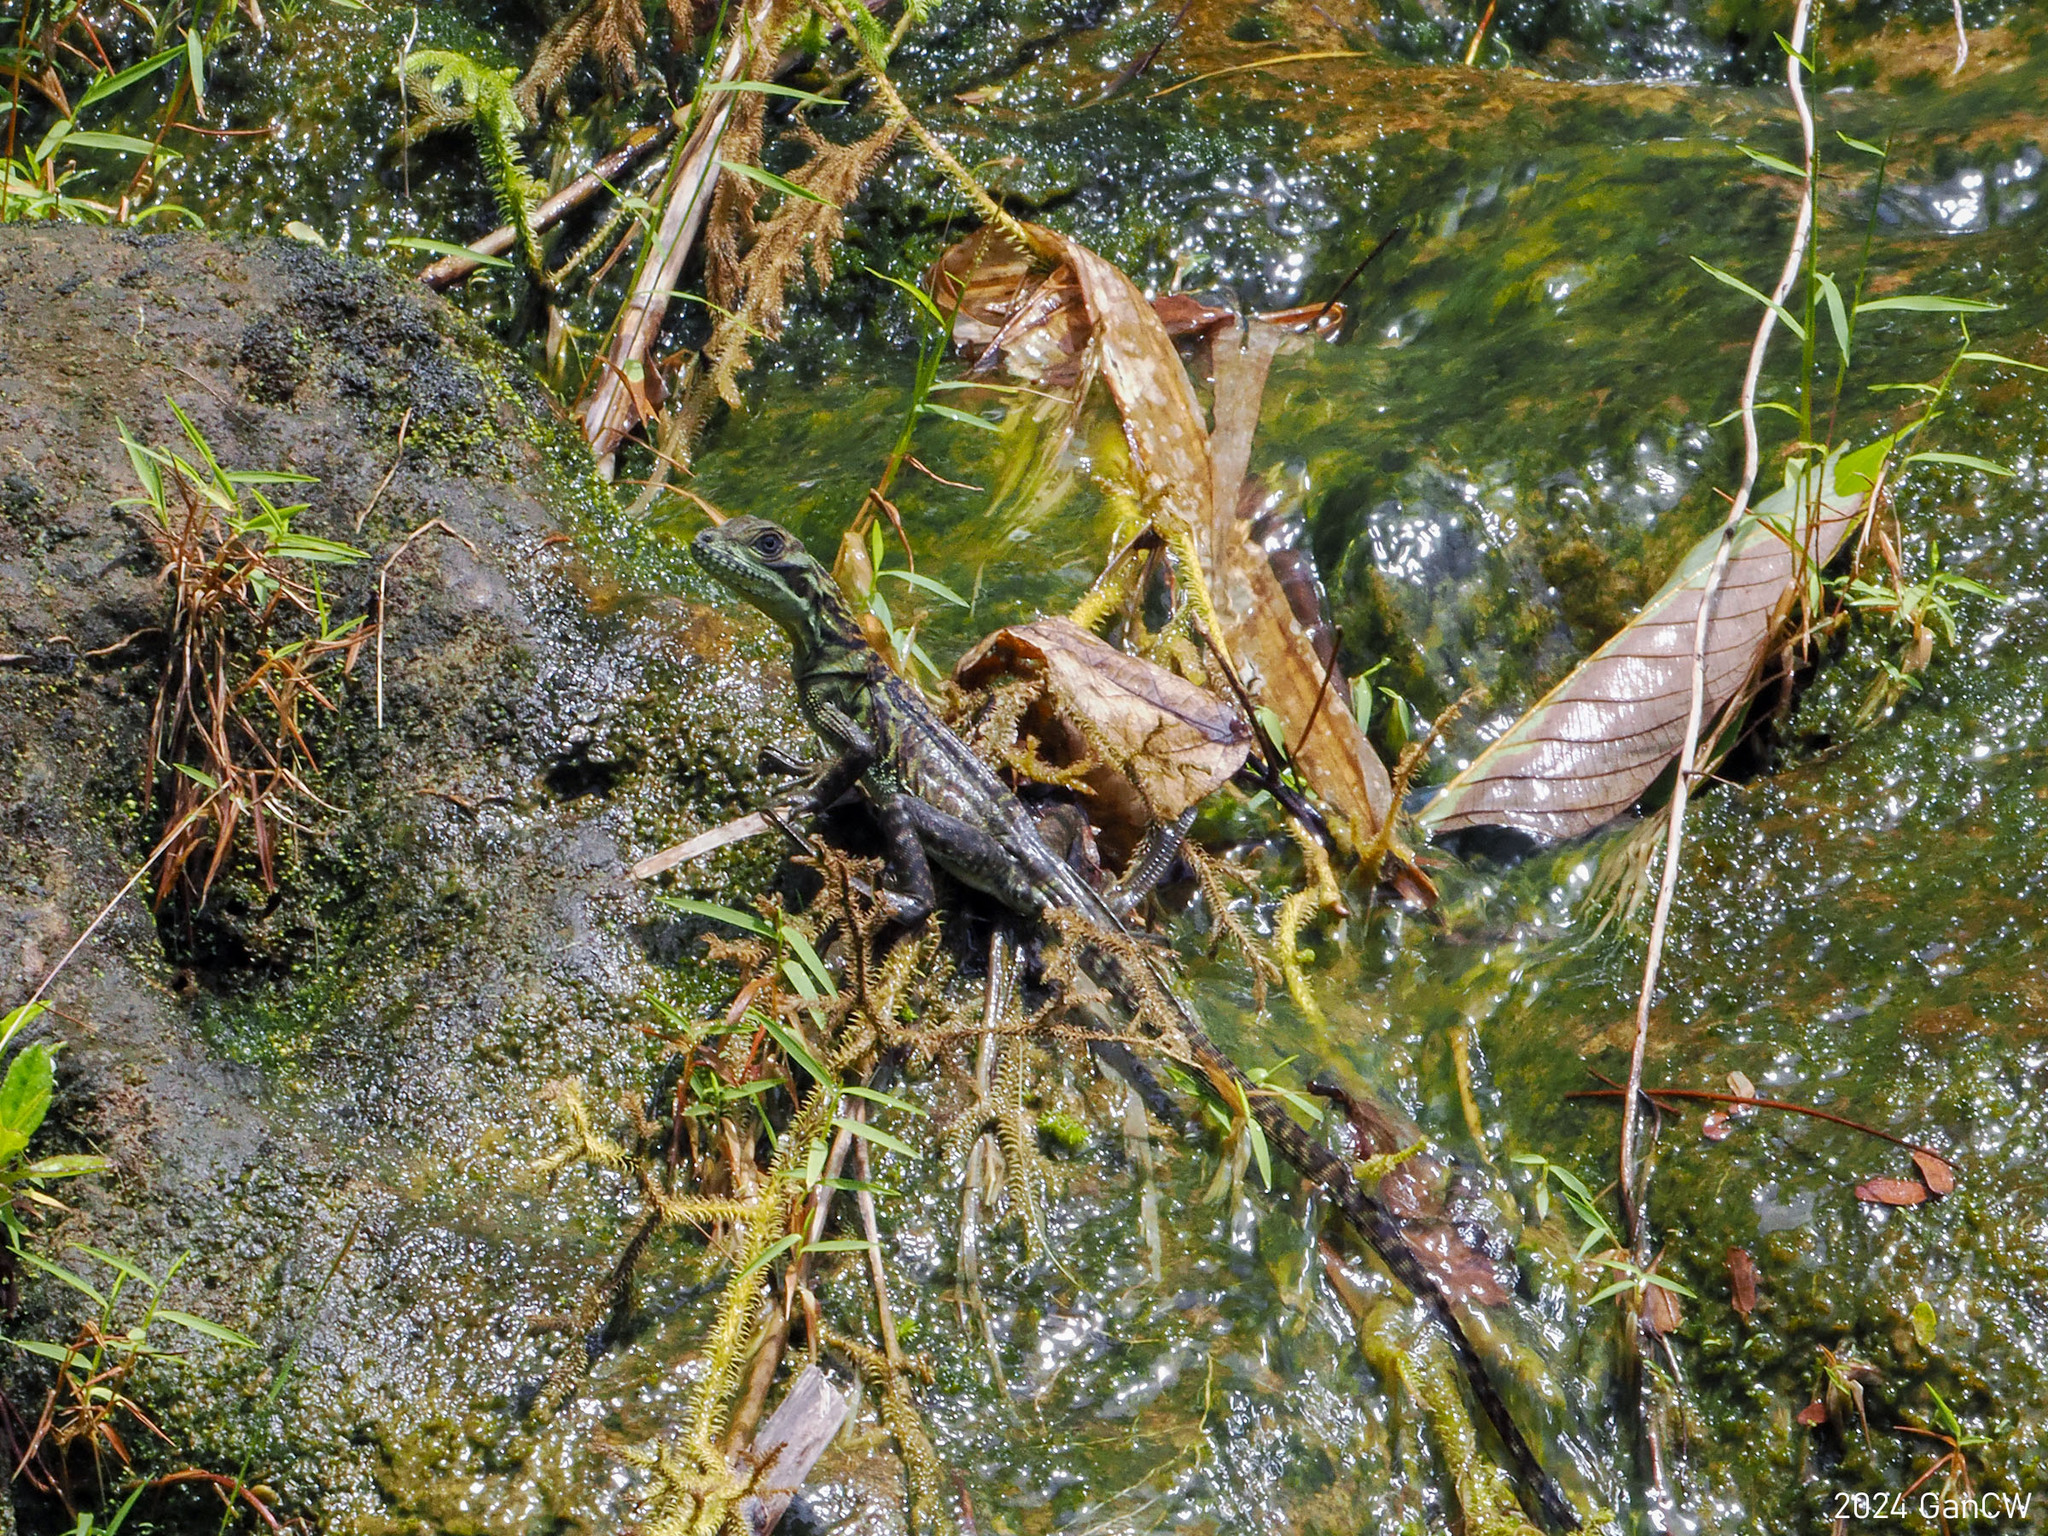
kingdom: Animalia
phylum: Chordata
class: Squamata
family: Agamidae
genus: Hydrosaurus
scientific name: Hydrosaurus pustulatus
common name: Philippine sailfin lizard
